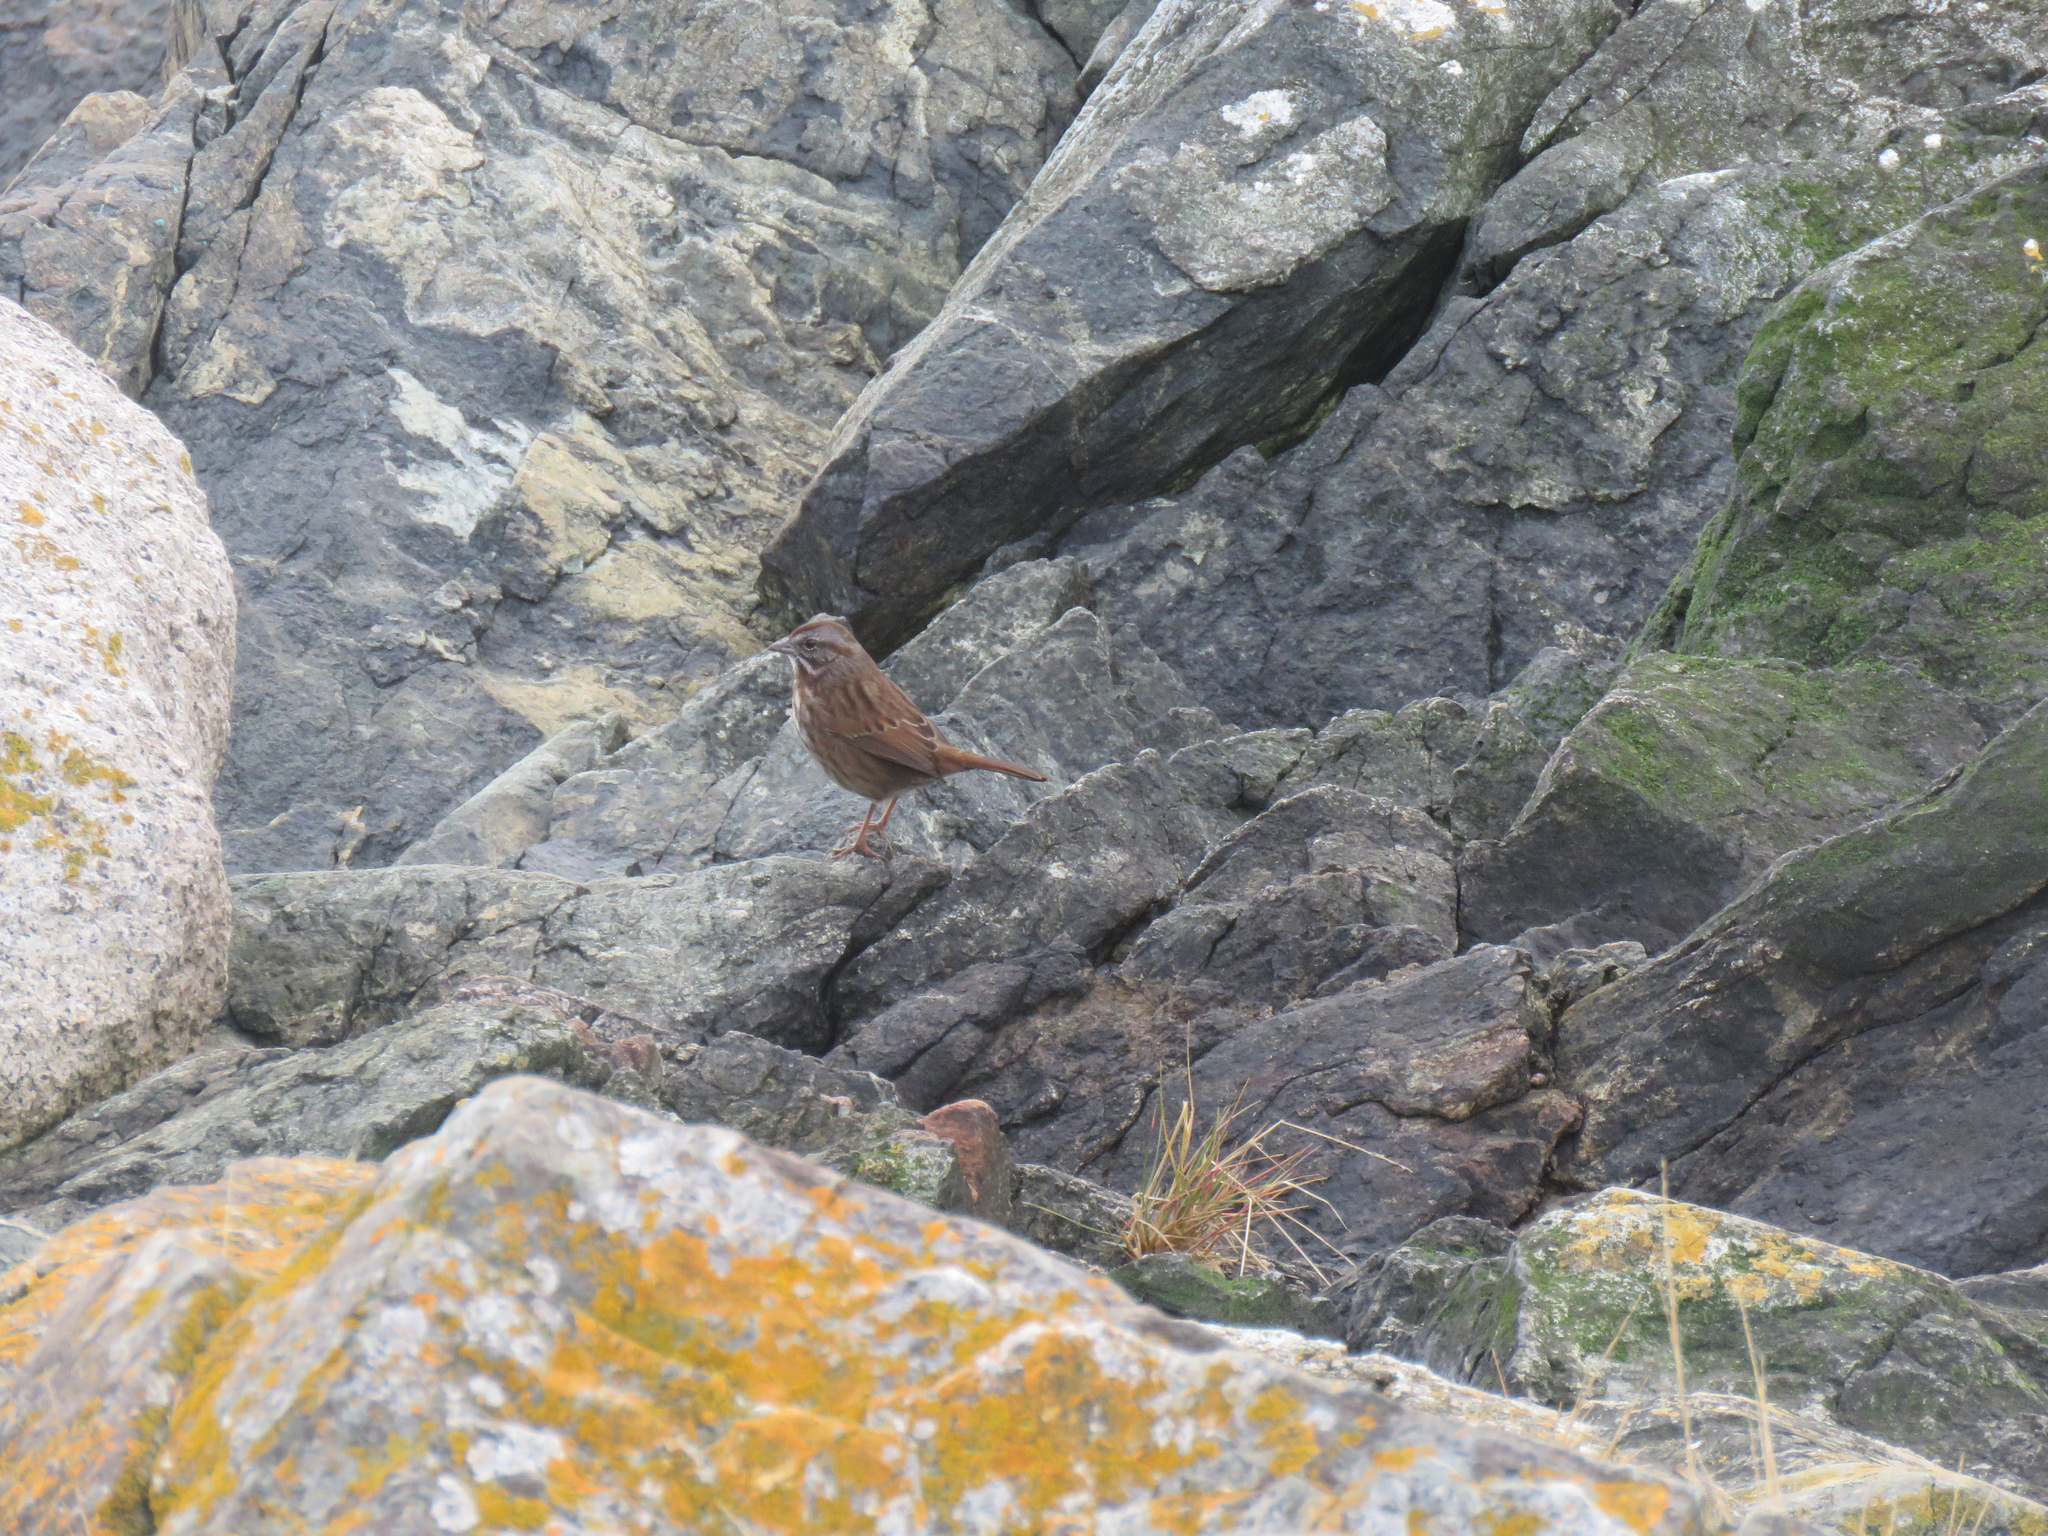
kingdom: Animalia
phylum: Chordata
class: Aves
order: Passeriformes
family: Passerellidae
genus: Melospiza
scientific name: Melospiza melodia
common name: Song sparrow
